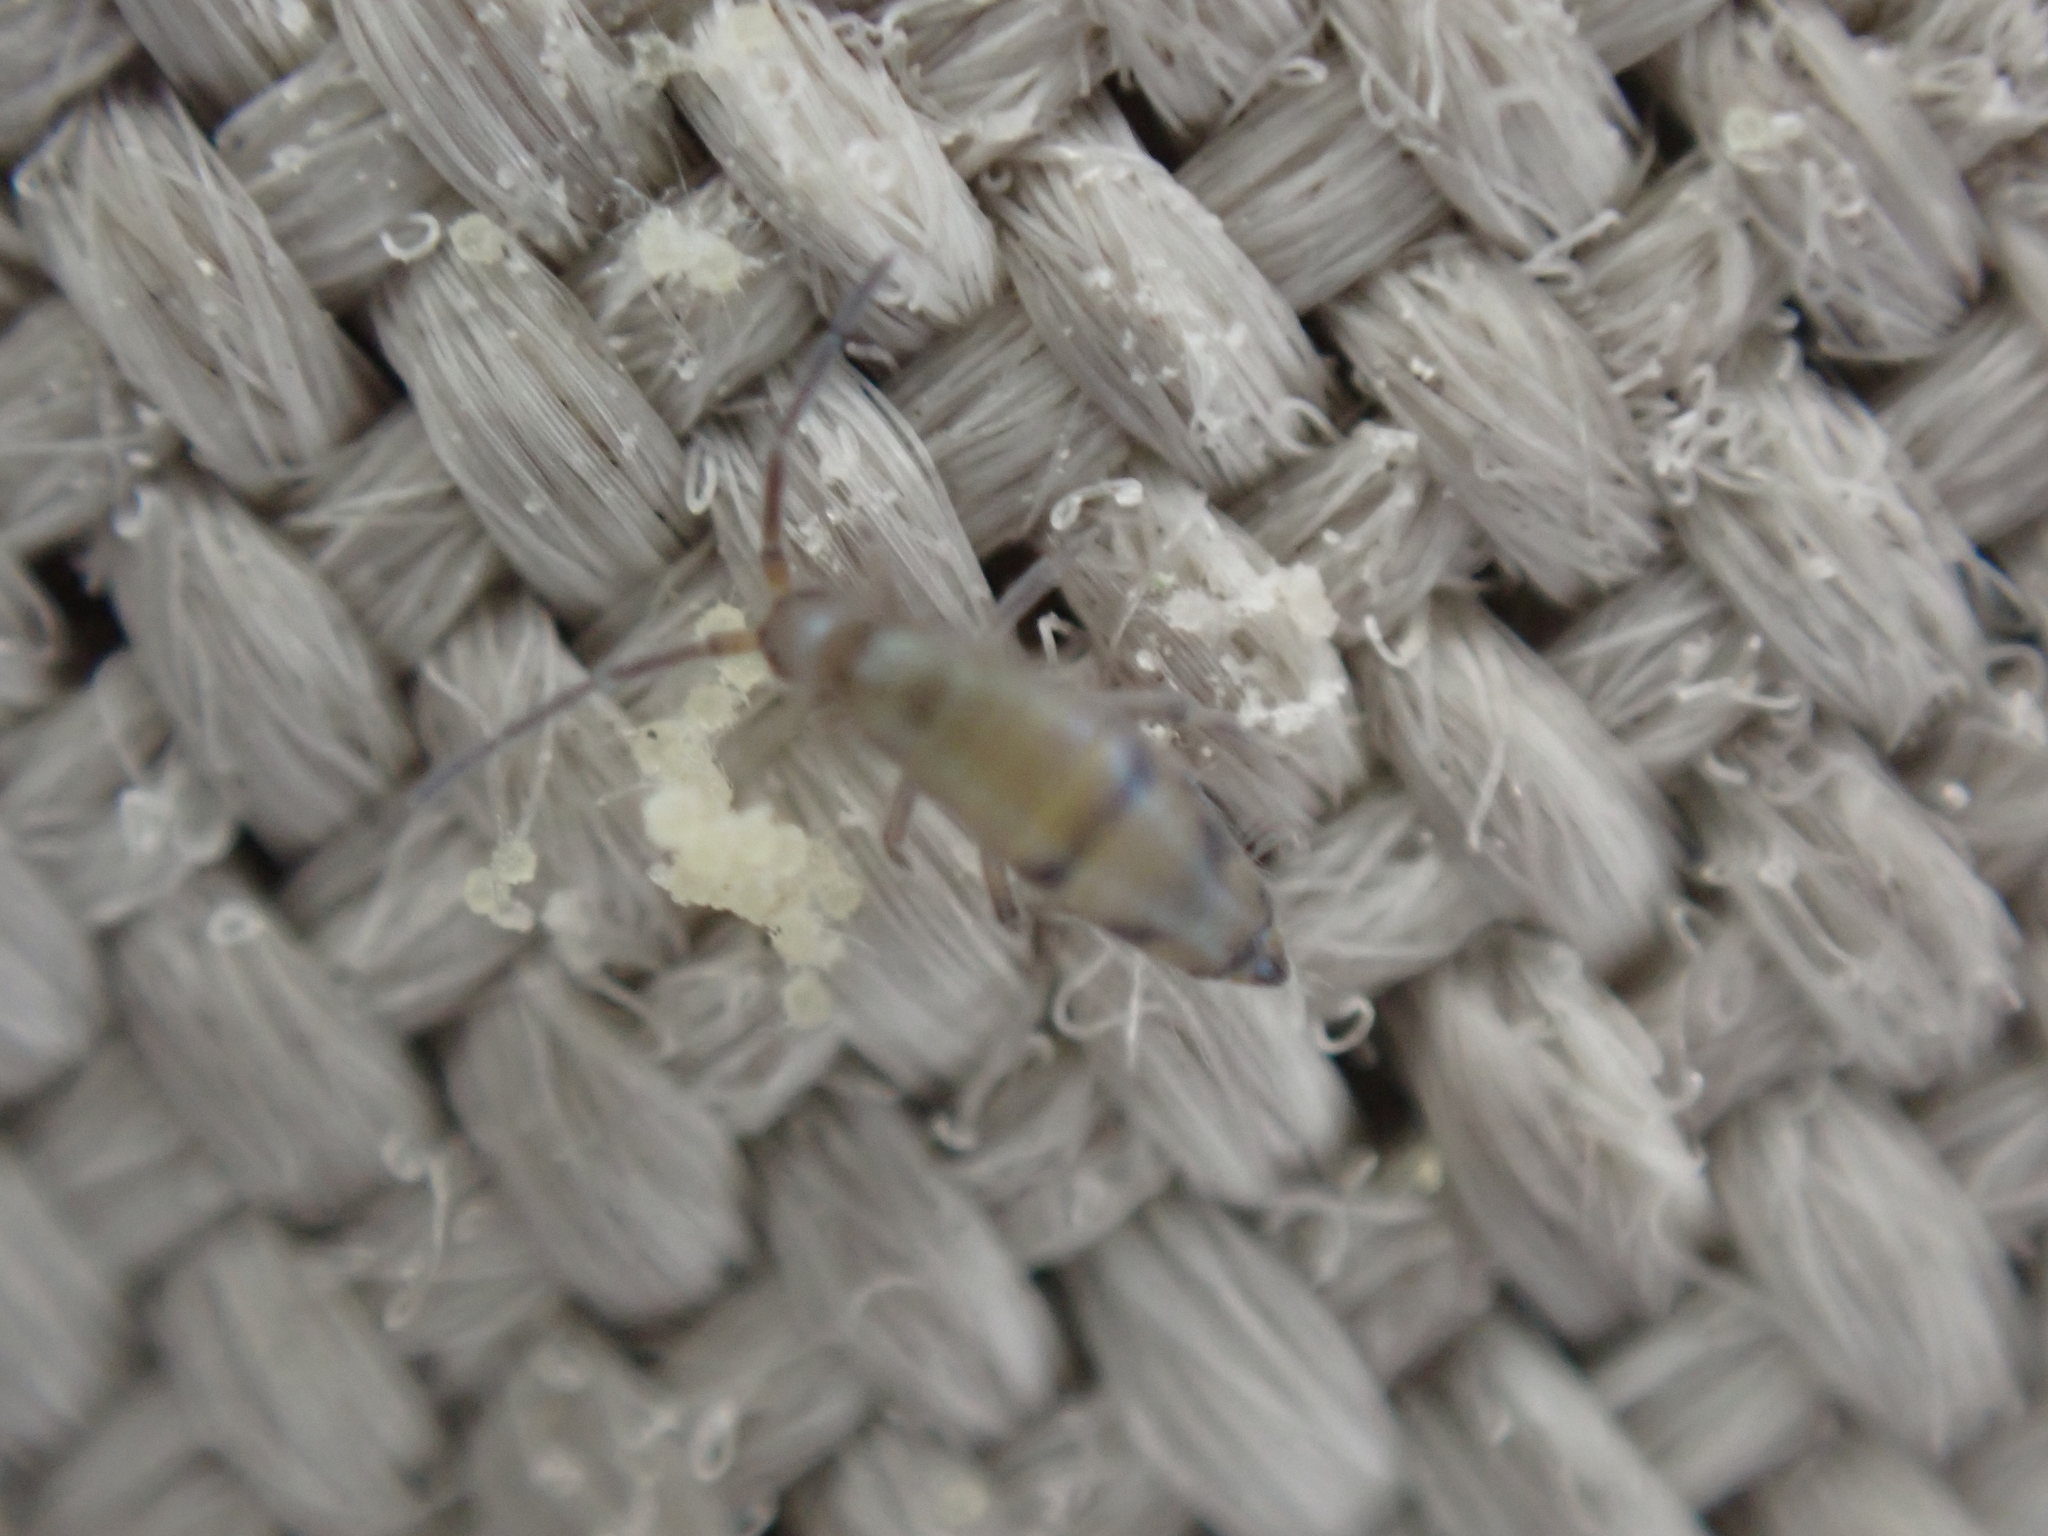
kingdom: Animalia
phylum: Arthropoda
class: Collembola
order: Entomobryomorpha
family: Entomobryidae
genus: Willowsia
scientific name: Willowsia nigromaculata
